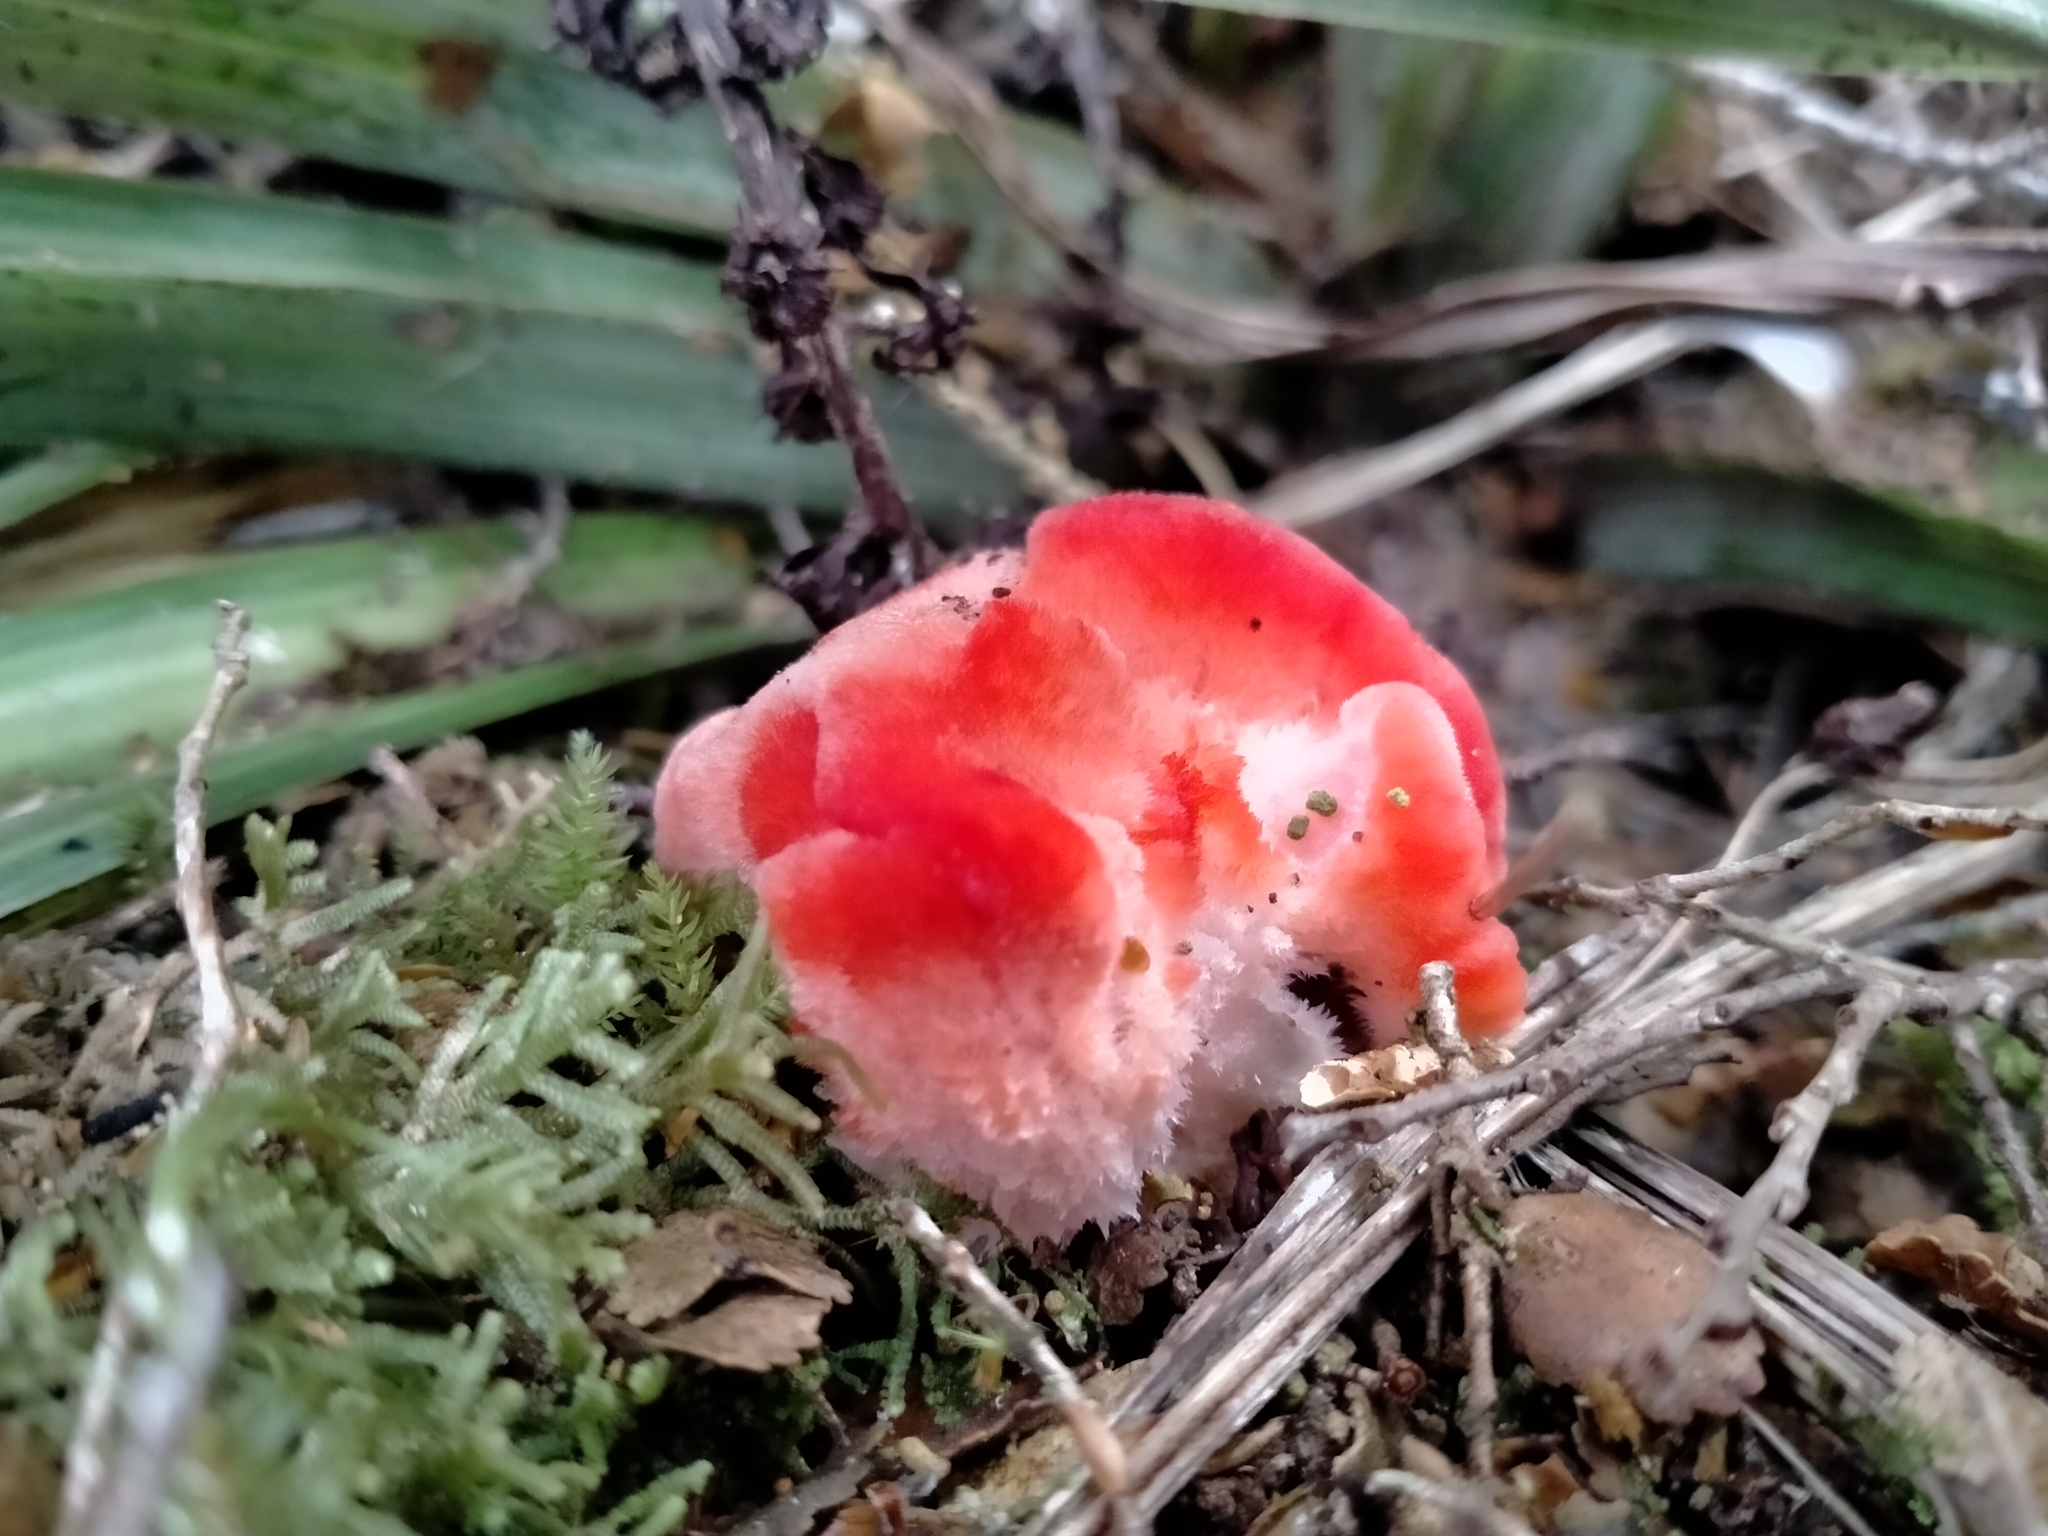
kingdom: Fungi
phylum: Basidiomycota
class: Agaricomycetes
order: Polyporales
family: Incrustoporiaceae
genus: Tyromyces
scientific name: Tyromyces pulcherrimus
